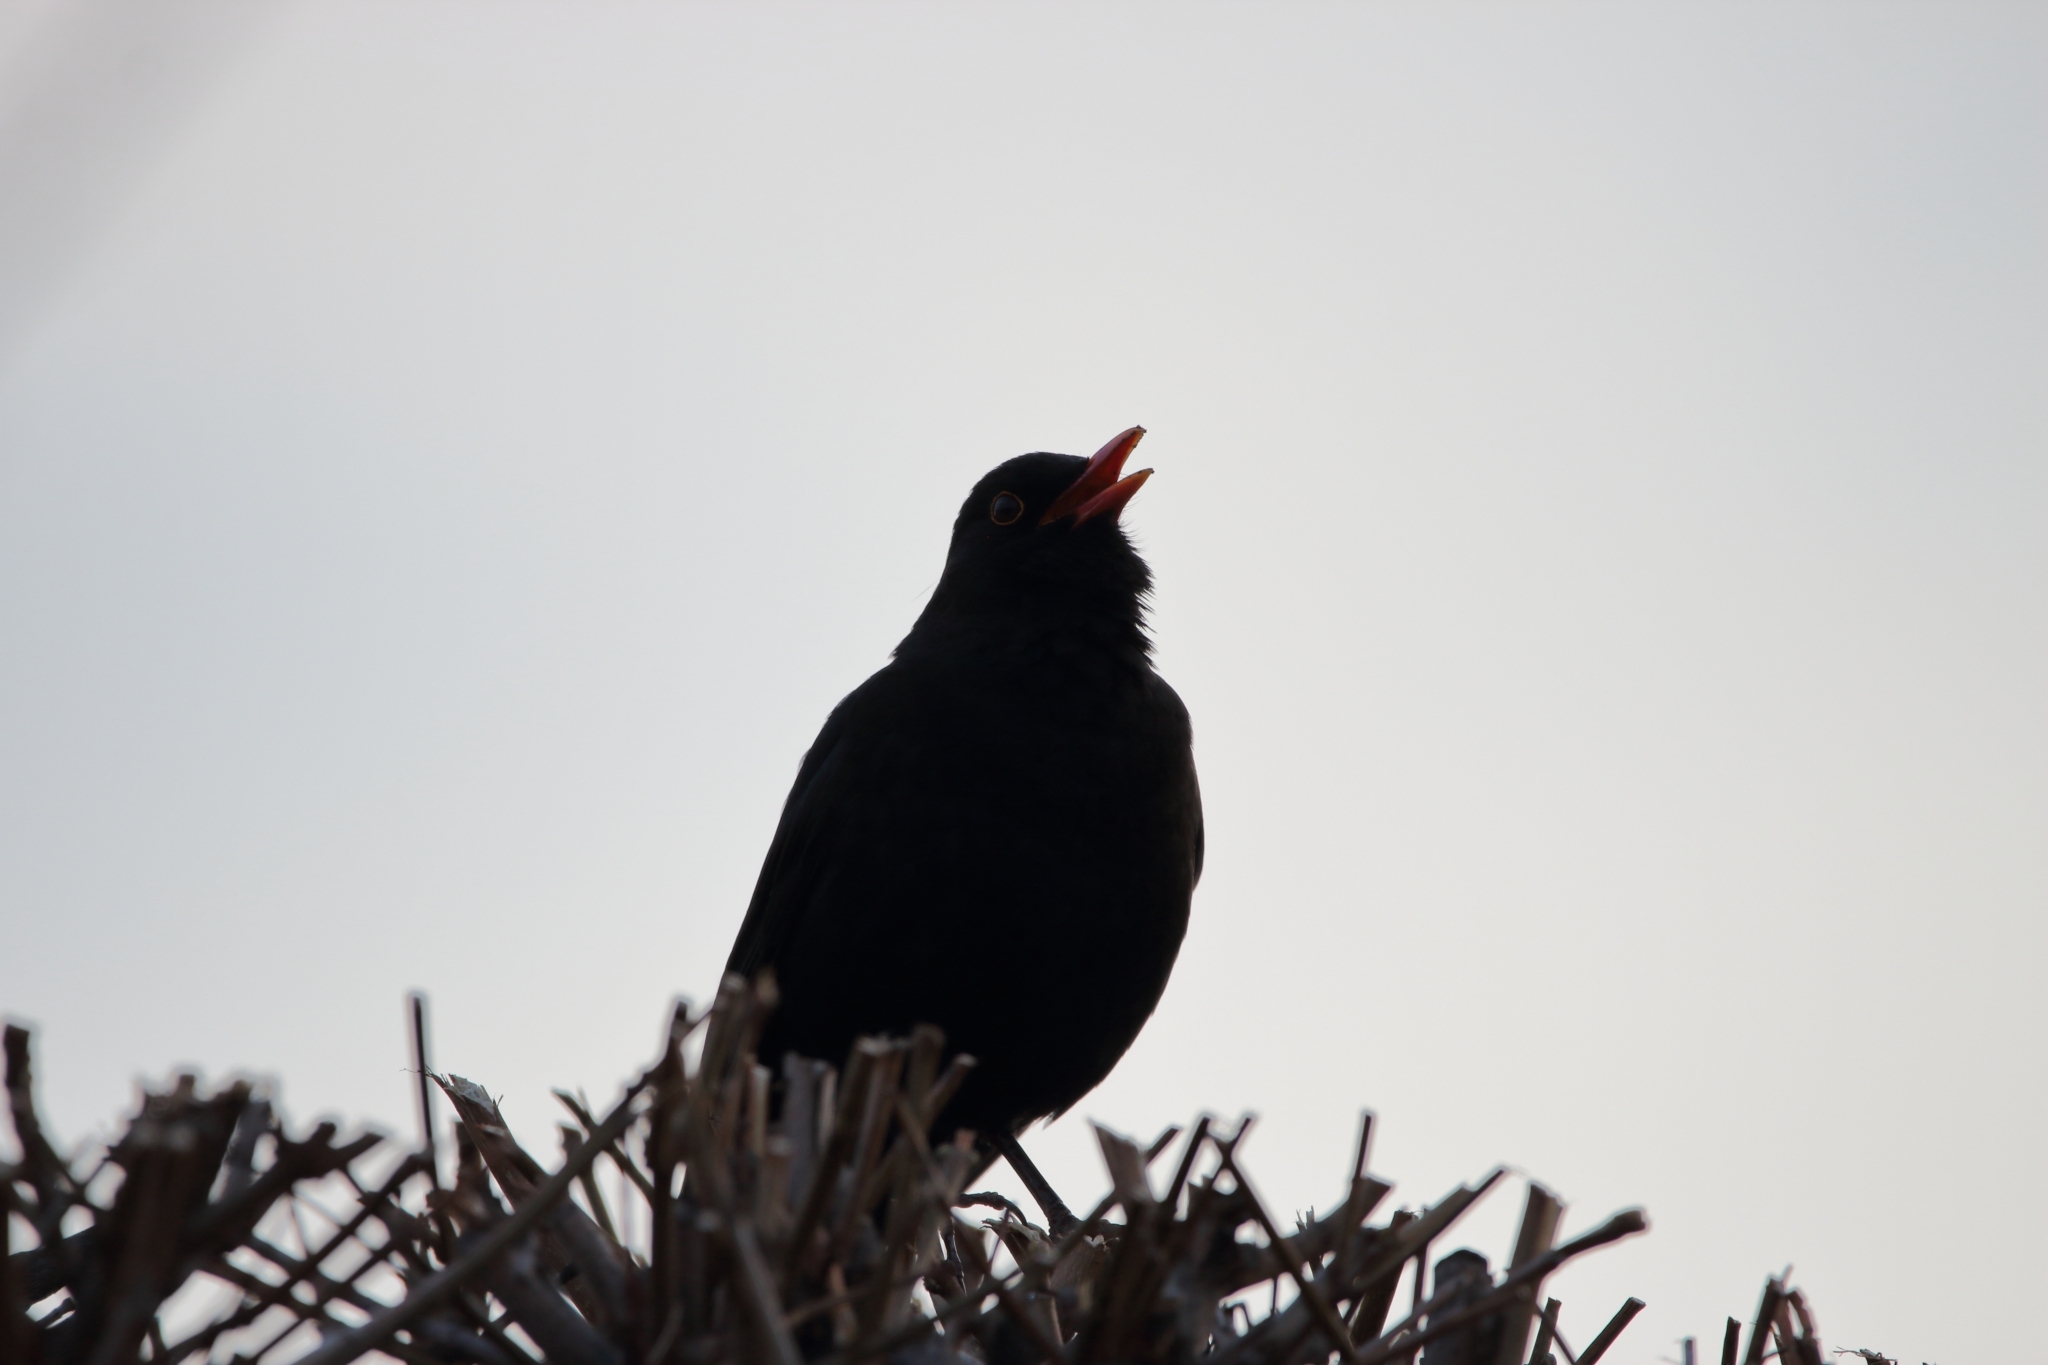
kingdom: Animalia
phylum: Chordata
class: Aves
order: Passeriformes
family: Turdidae
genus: Turdus
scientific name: Turdus merula
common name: Common blackbird
